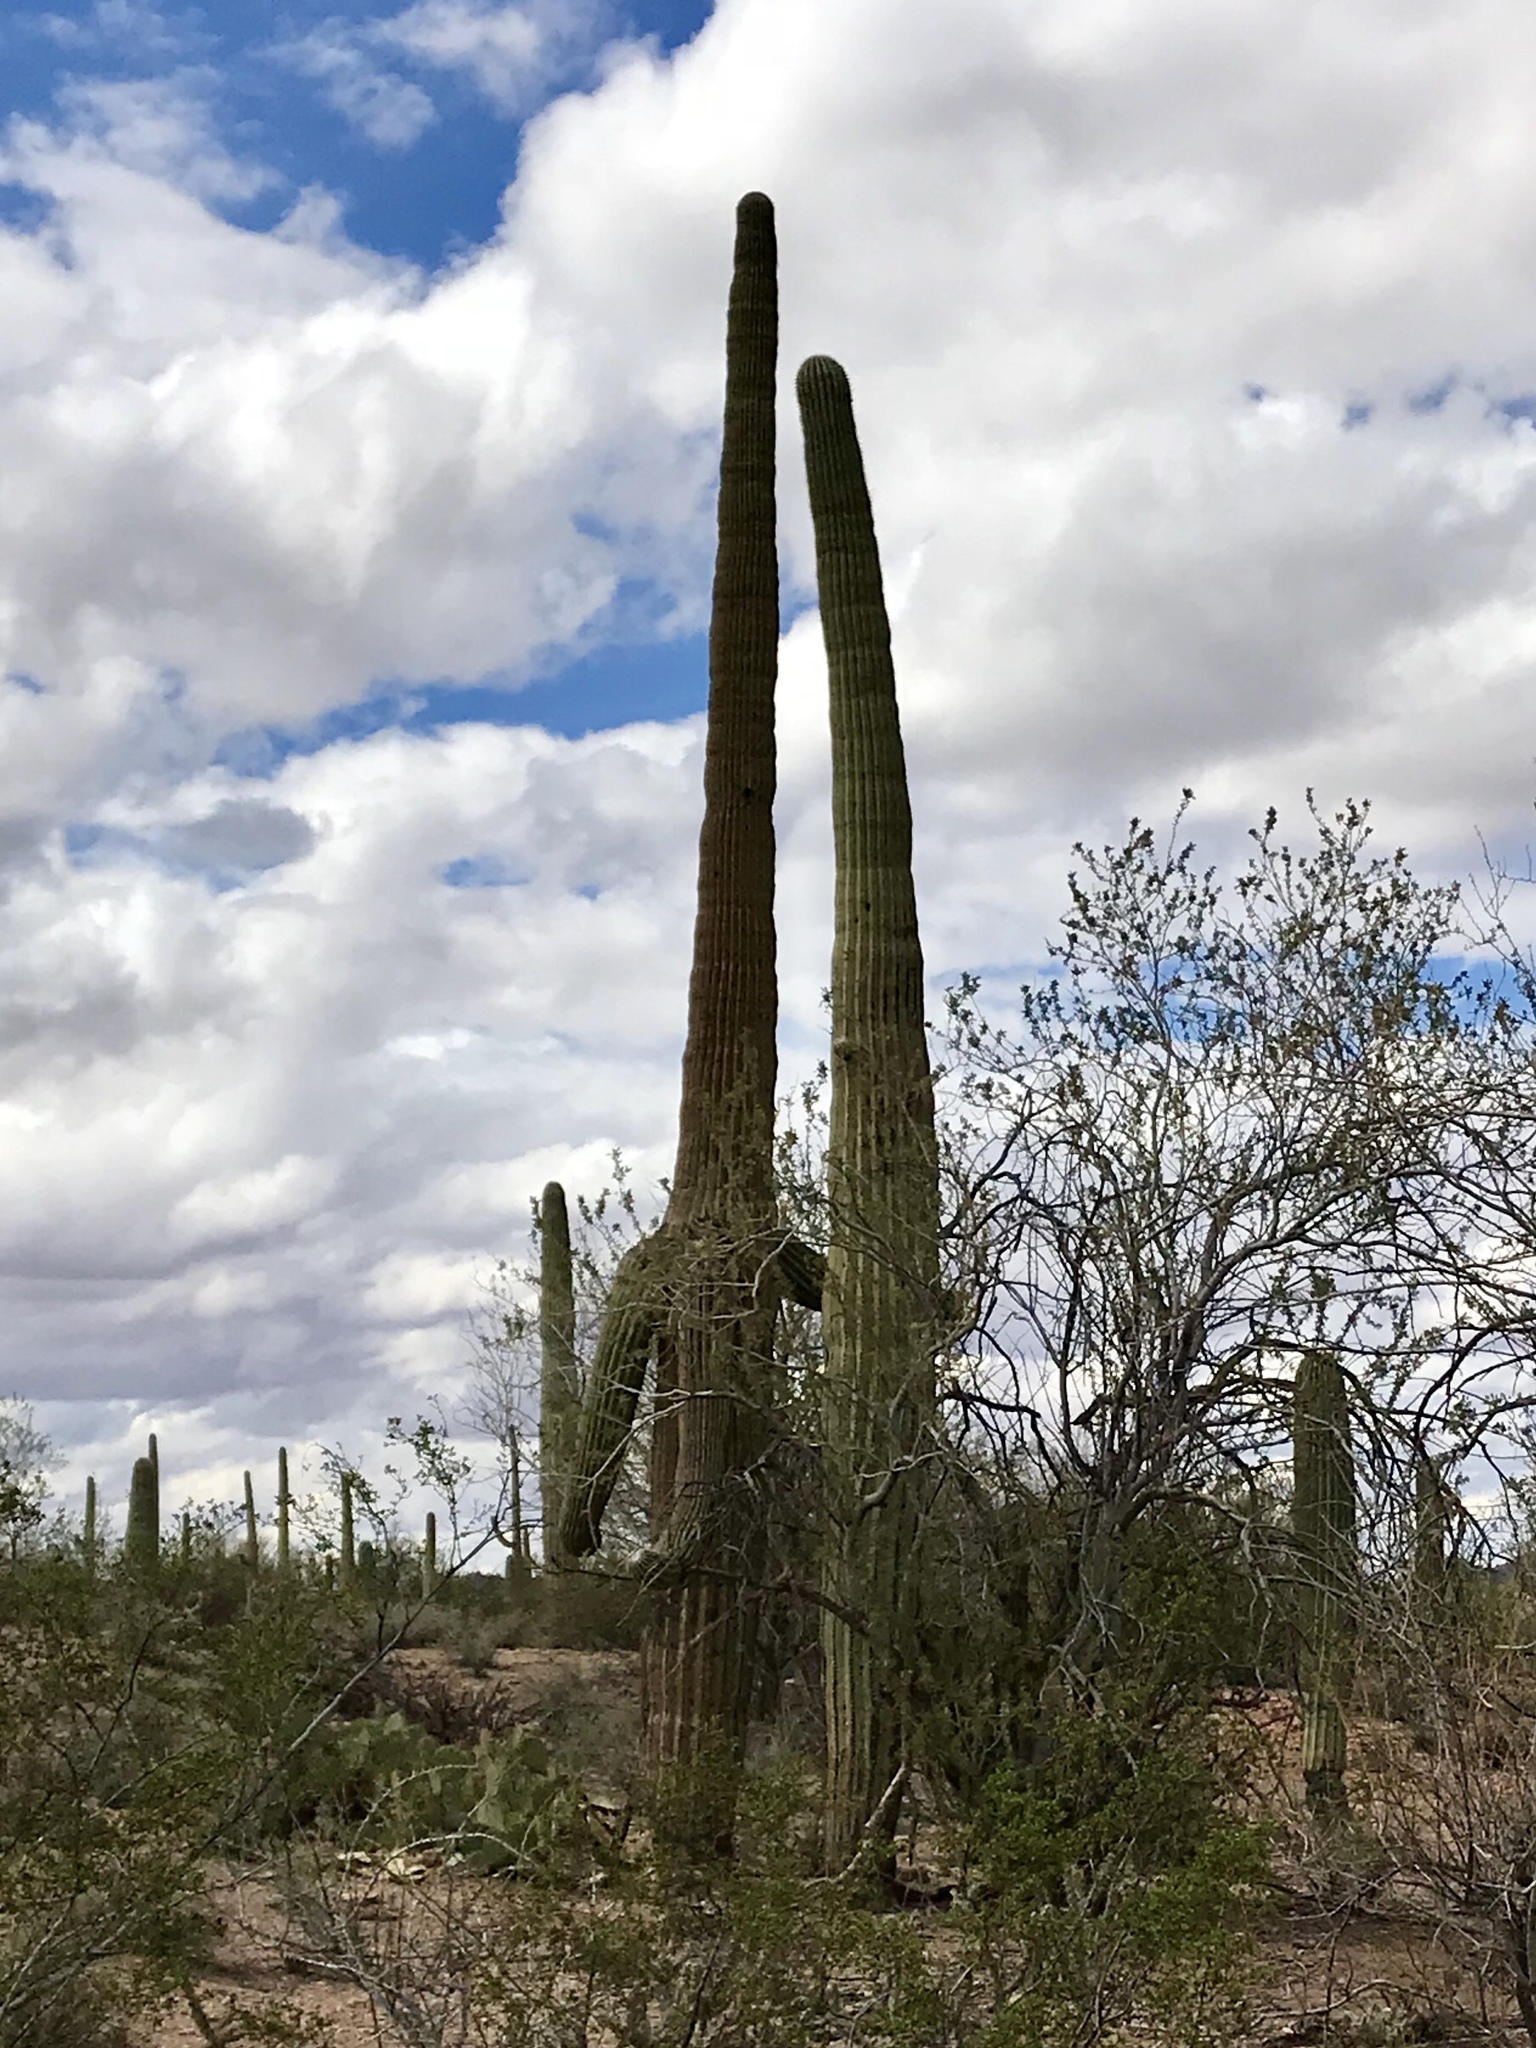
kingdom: Plantae
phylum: Tracheophyta
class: Magnoliopsida
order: Caryophyllales
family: Cactaceae
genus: Carnegiea
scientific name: Carnegiea gigantea
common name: Saguaro
